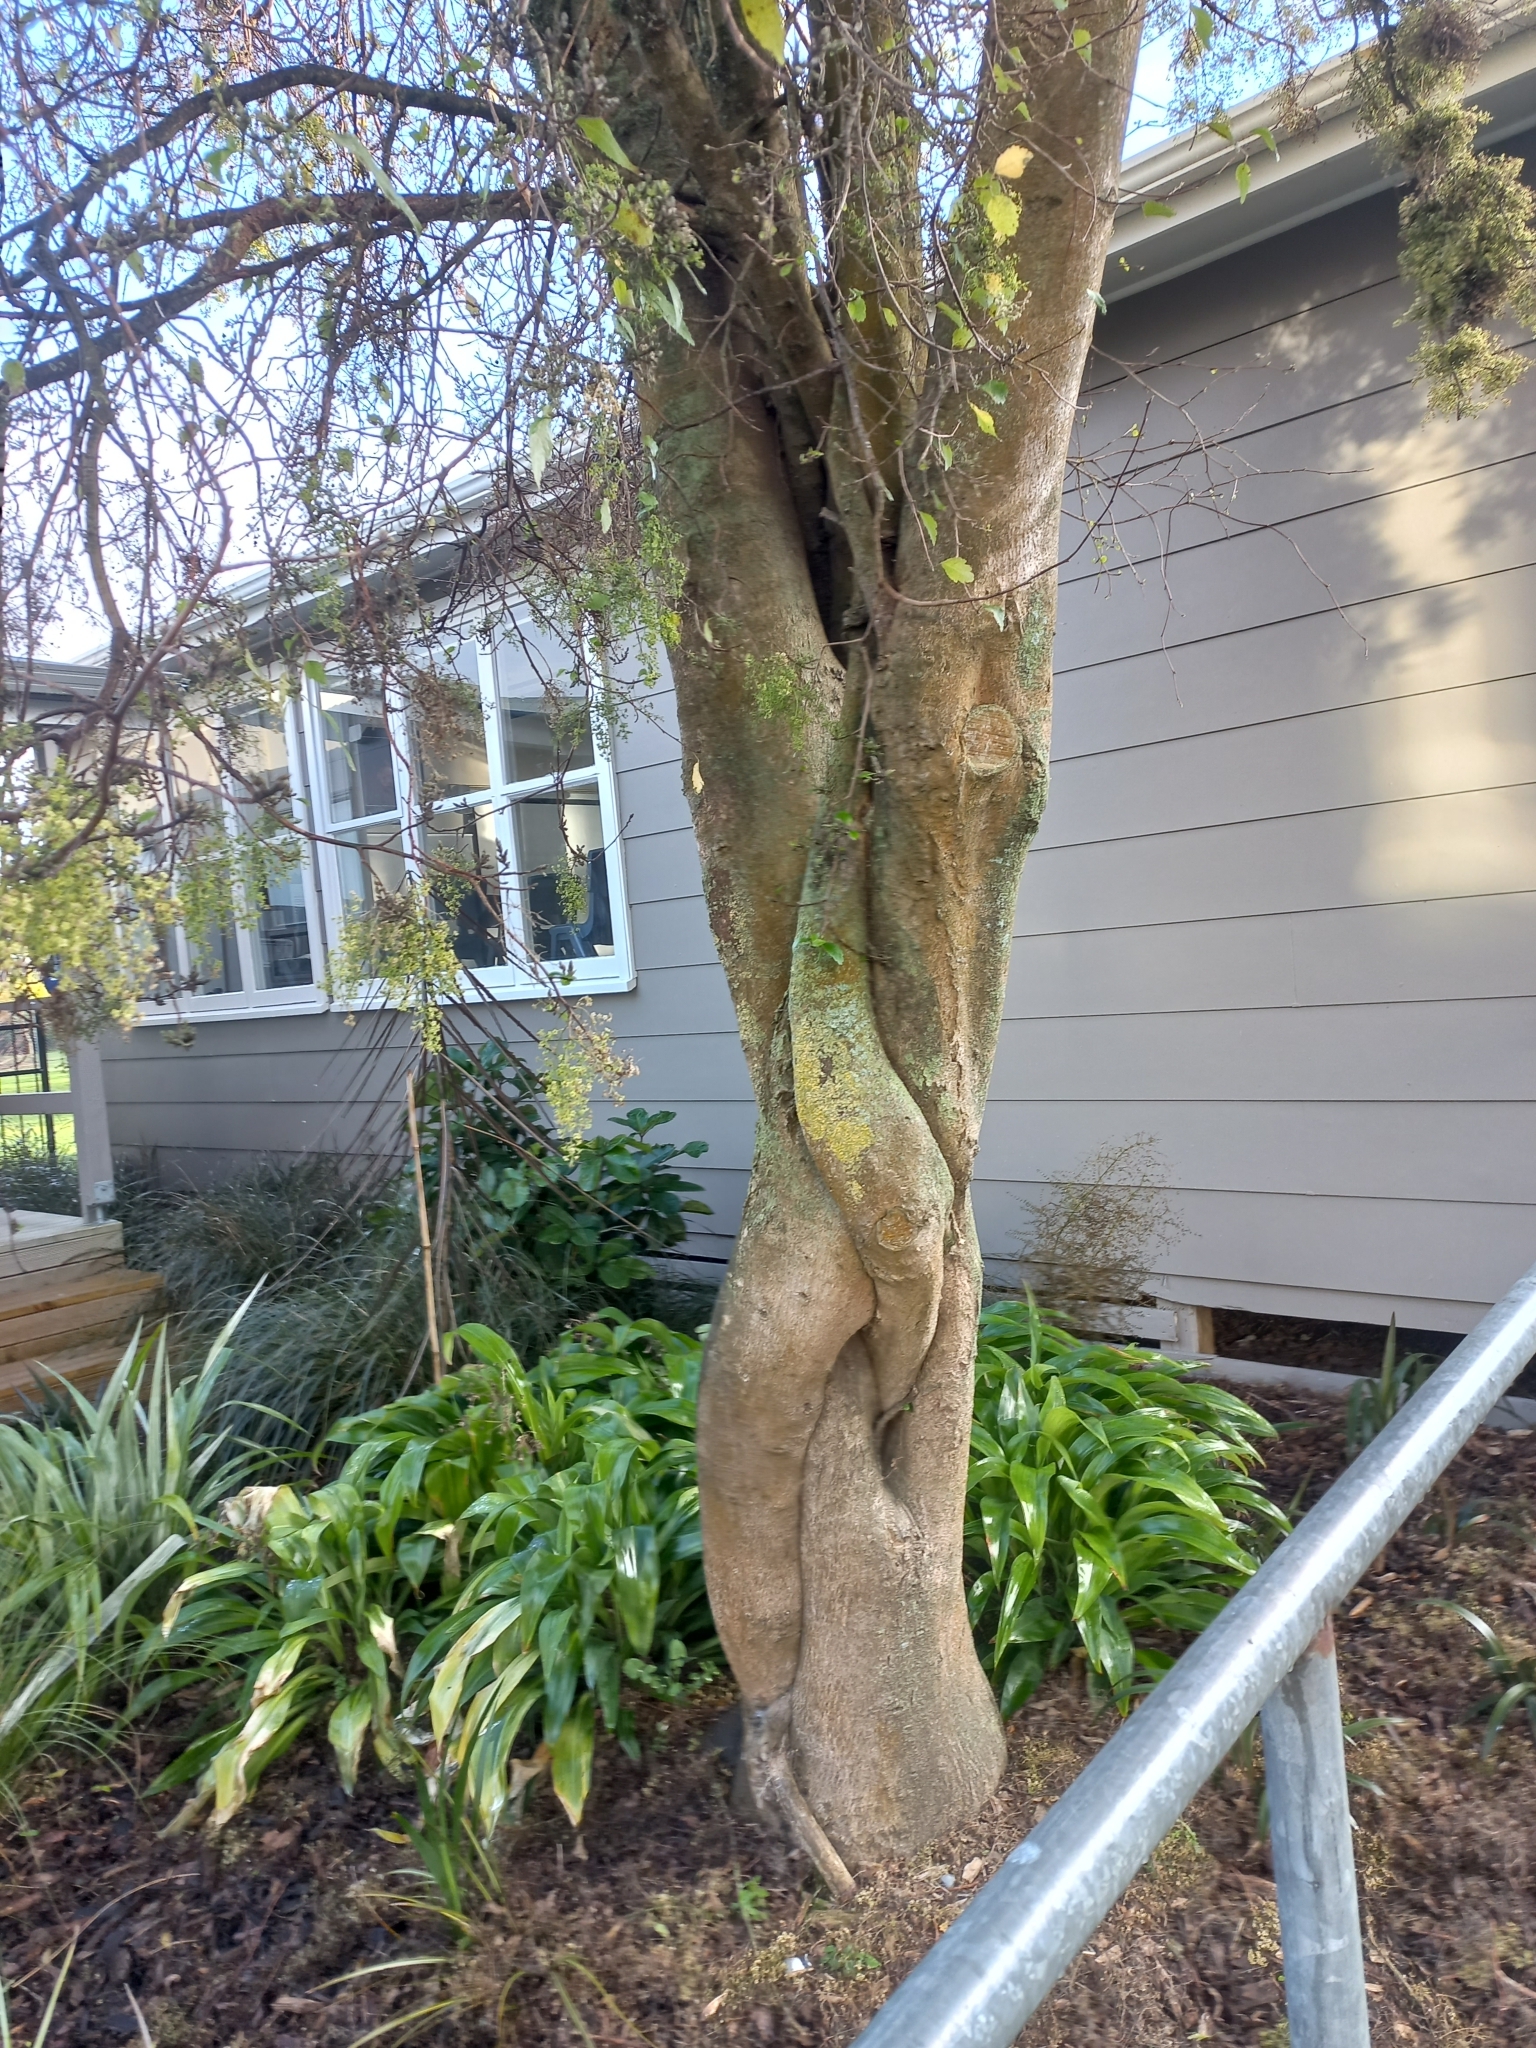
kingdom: Plantae
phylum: Tracheophyta
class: Magnoliopsida
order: Malvales
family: Malvaceae
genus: Plagianthus
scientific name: Plagianthus regius
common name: Manatu
